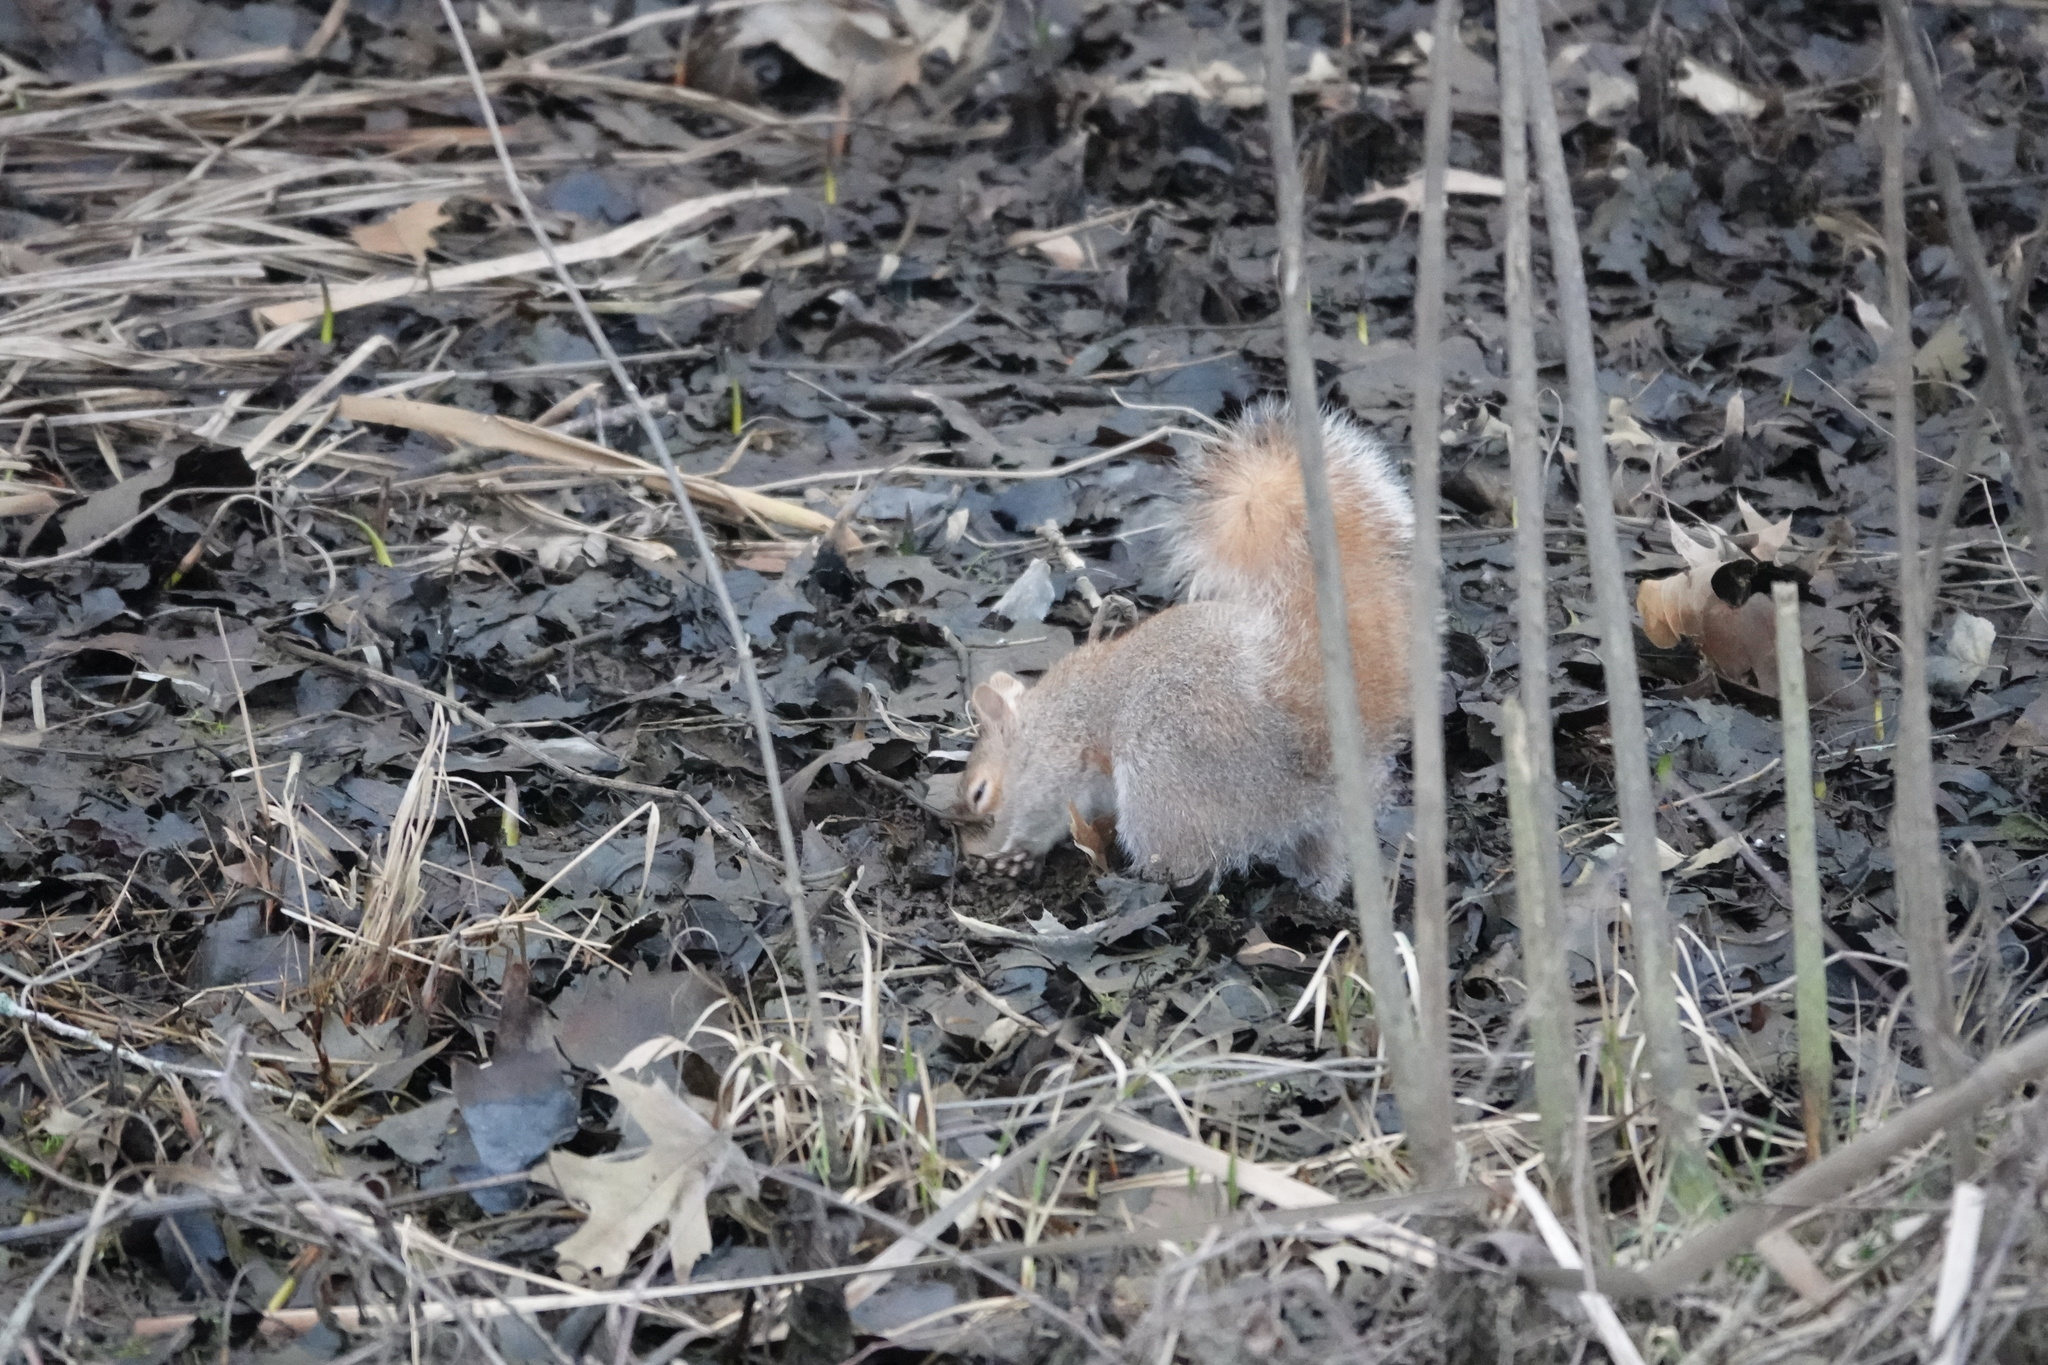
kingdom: Animalia
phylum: Chordata
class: Mammalia
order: Rodentia
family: Sciuridae
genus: Sciurus
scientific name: Sciurus carolinensis
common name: Eastern gray squirrel
